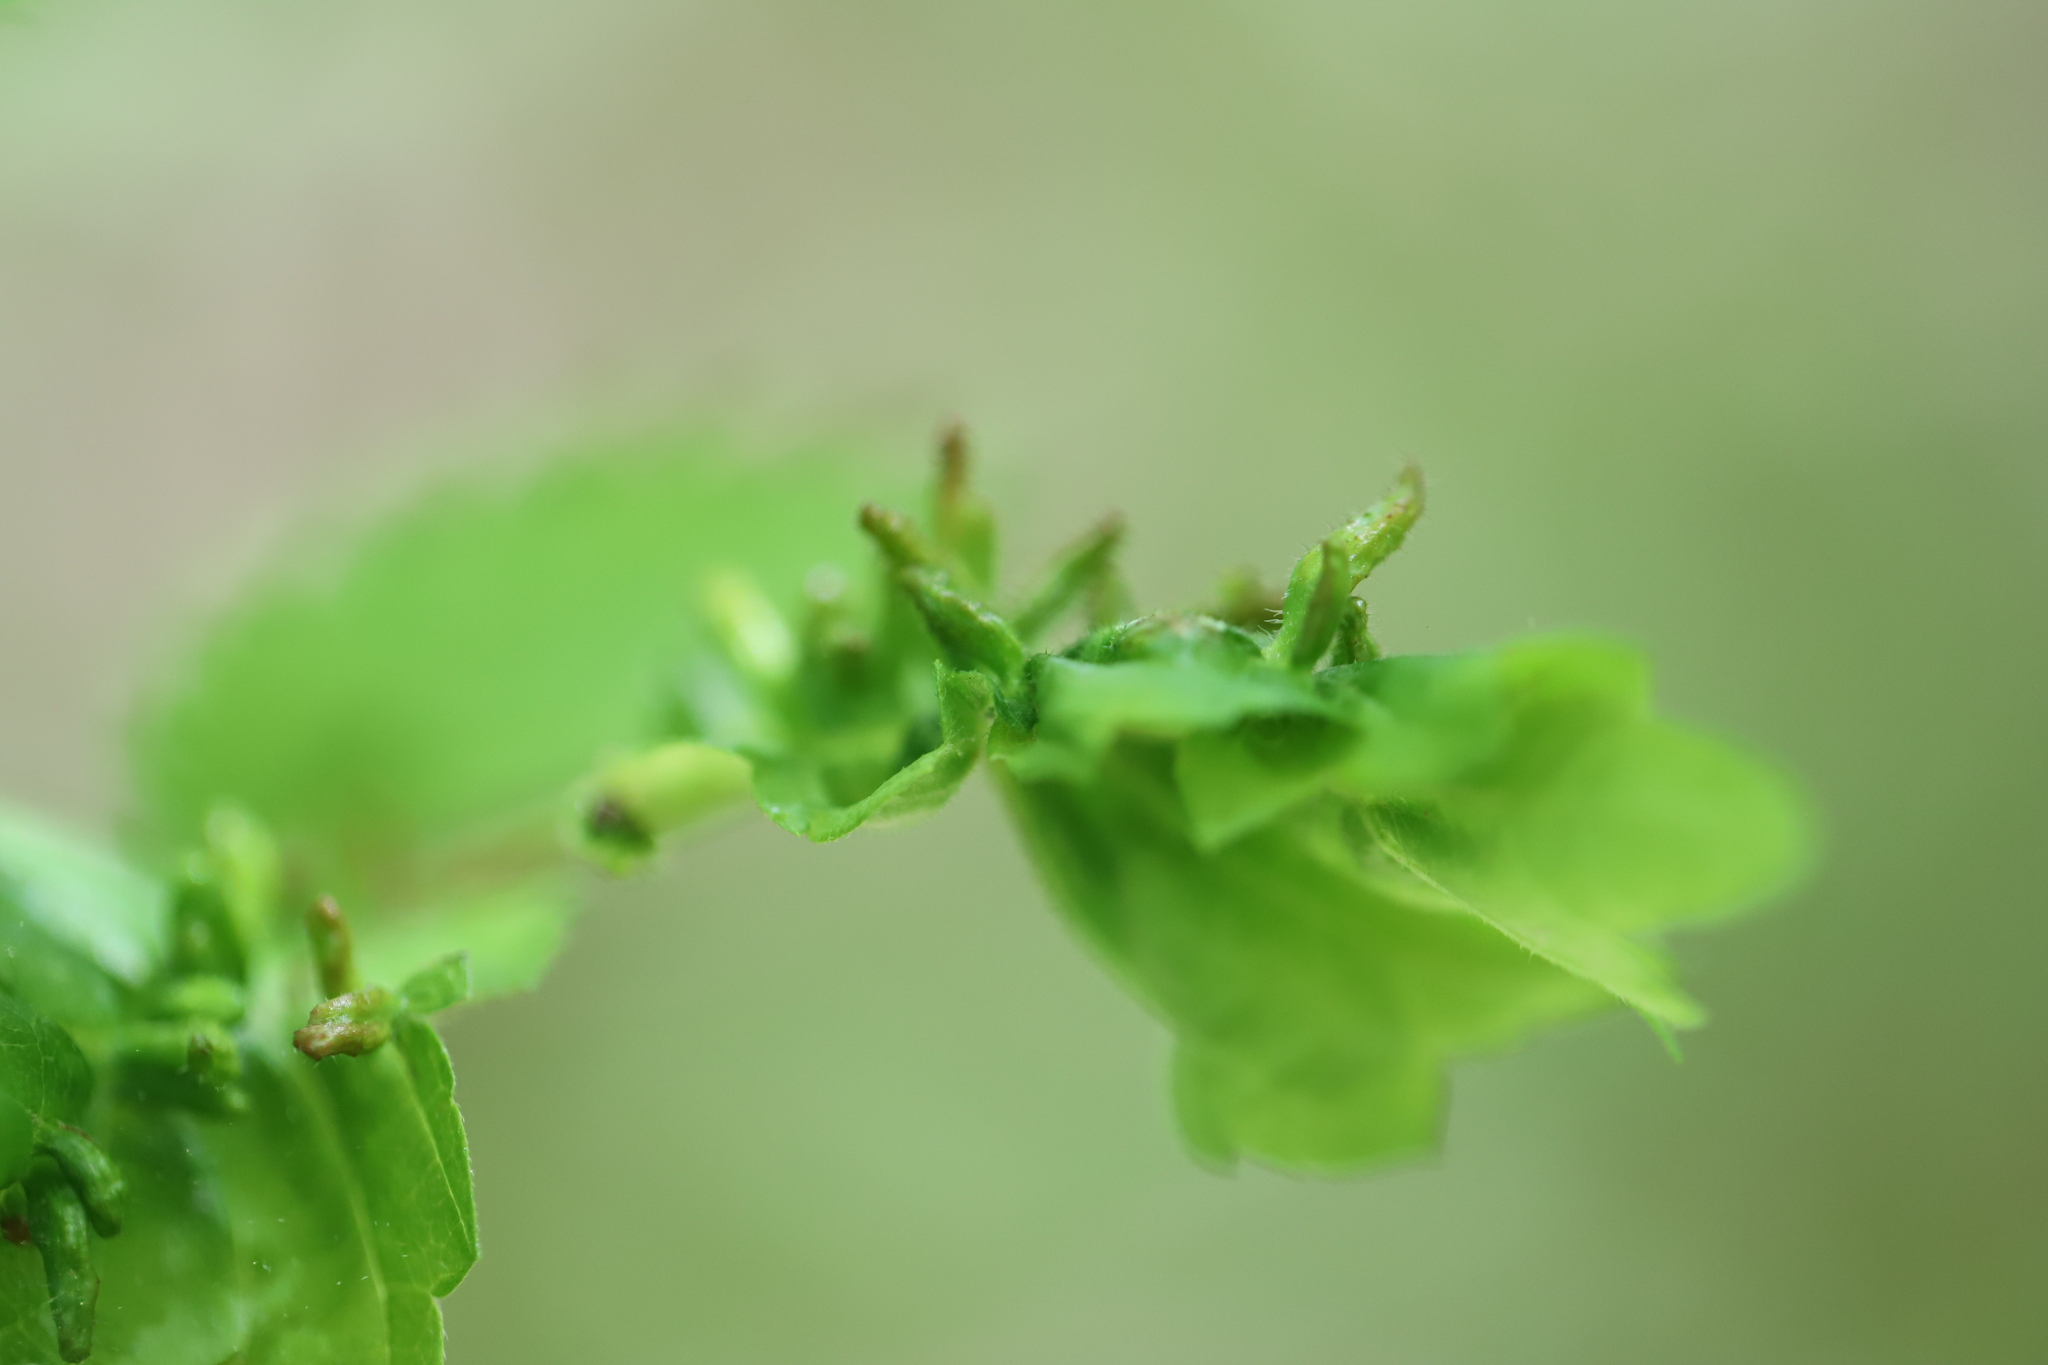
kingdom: Animalia
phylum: Arthropoda
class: Arachnida
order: Trombidiformes
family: Eriophyidae
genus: Aceria
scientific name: Aceria
